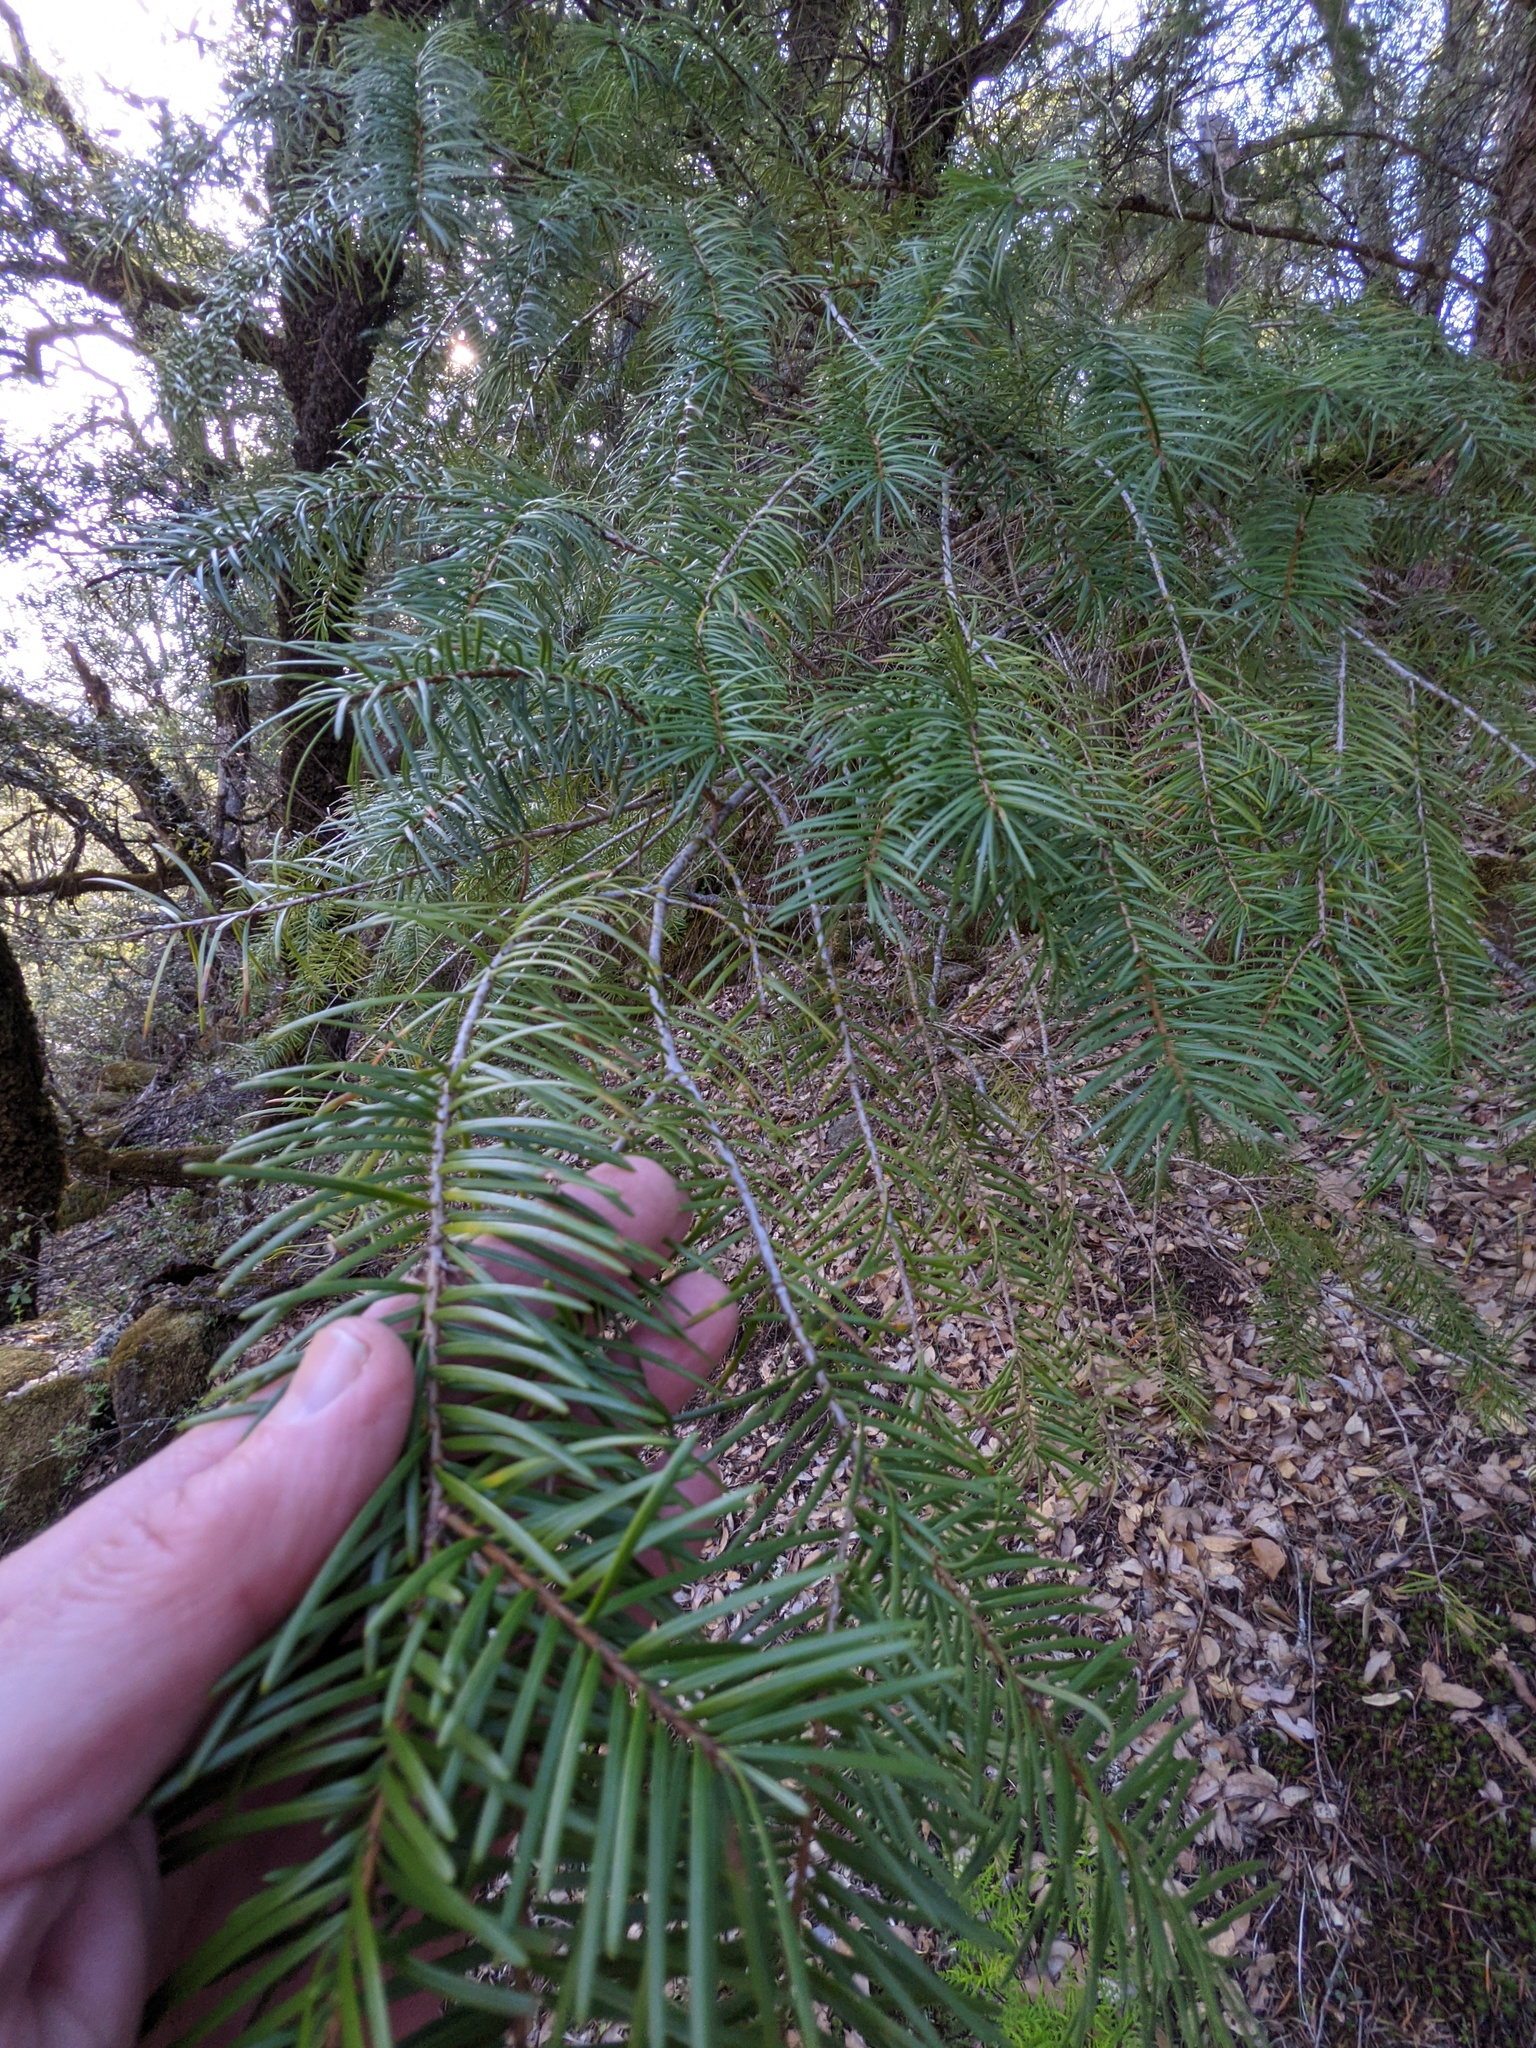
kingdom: Plantae
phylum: Tracheophyta
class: Pinopsida
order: Pinales
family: Pinaceae
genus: Pseudotsuga
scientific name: Pseudotsuga menziesii
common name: Douglas fir
